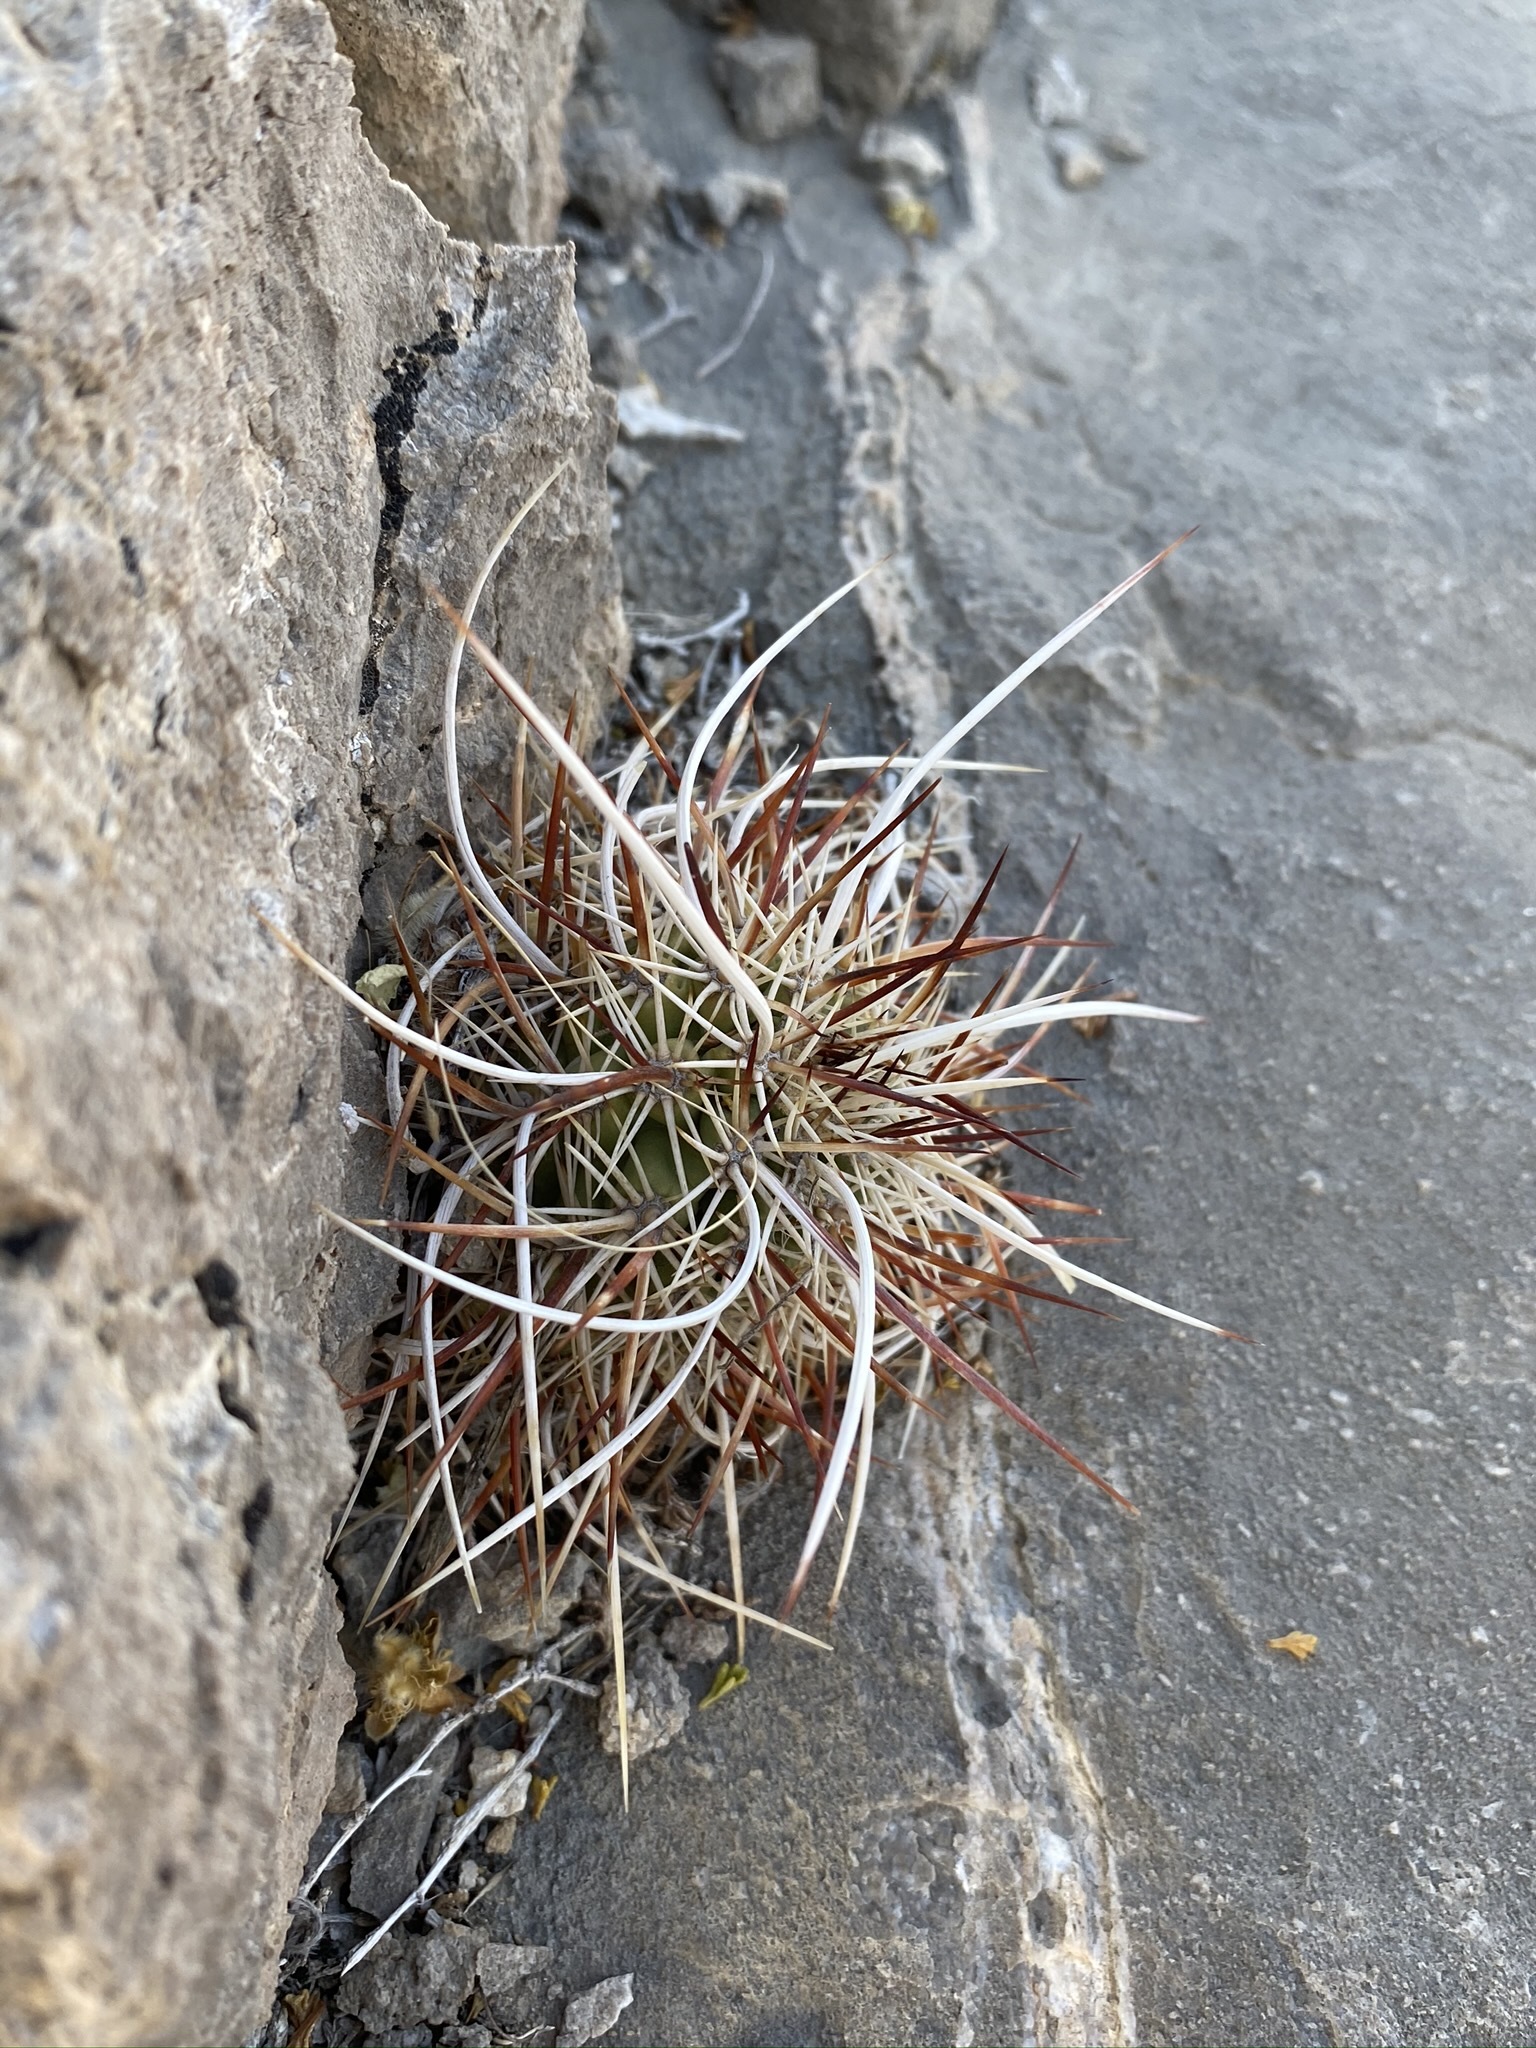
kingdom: Plantae
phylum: Tracheophyta
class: Magnoliopsida
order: Caryophyllales
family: Cactaceae
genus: Echinocereus
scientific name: Echinocereus engelmannii
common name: Engelmann's hedgehog cactus
